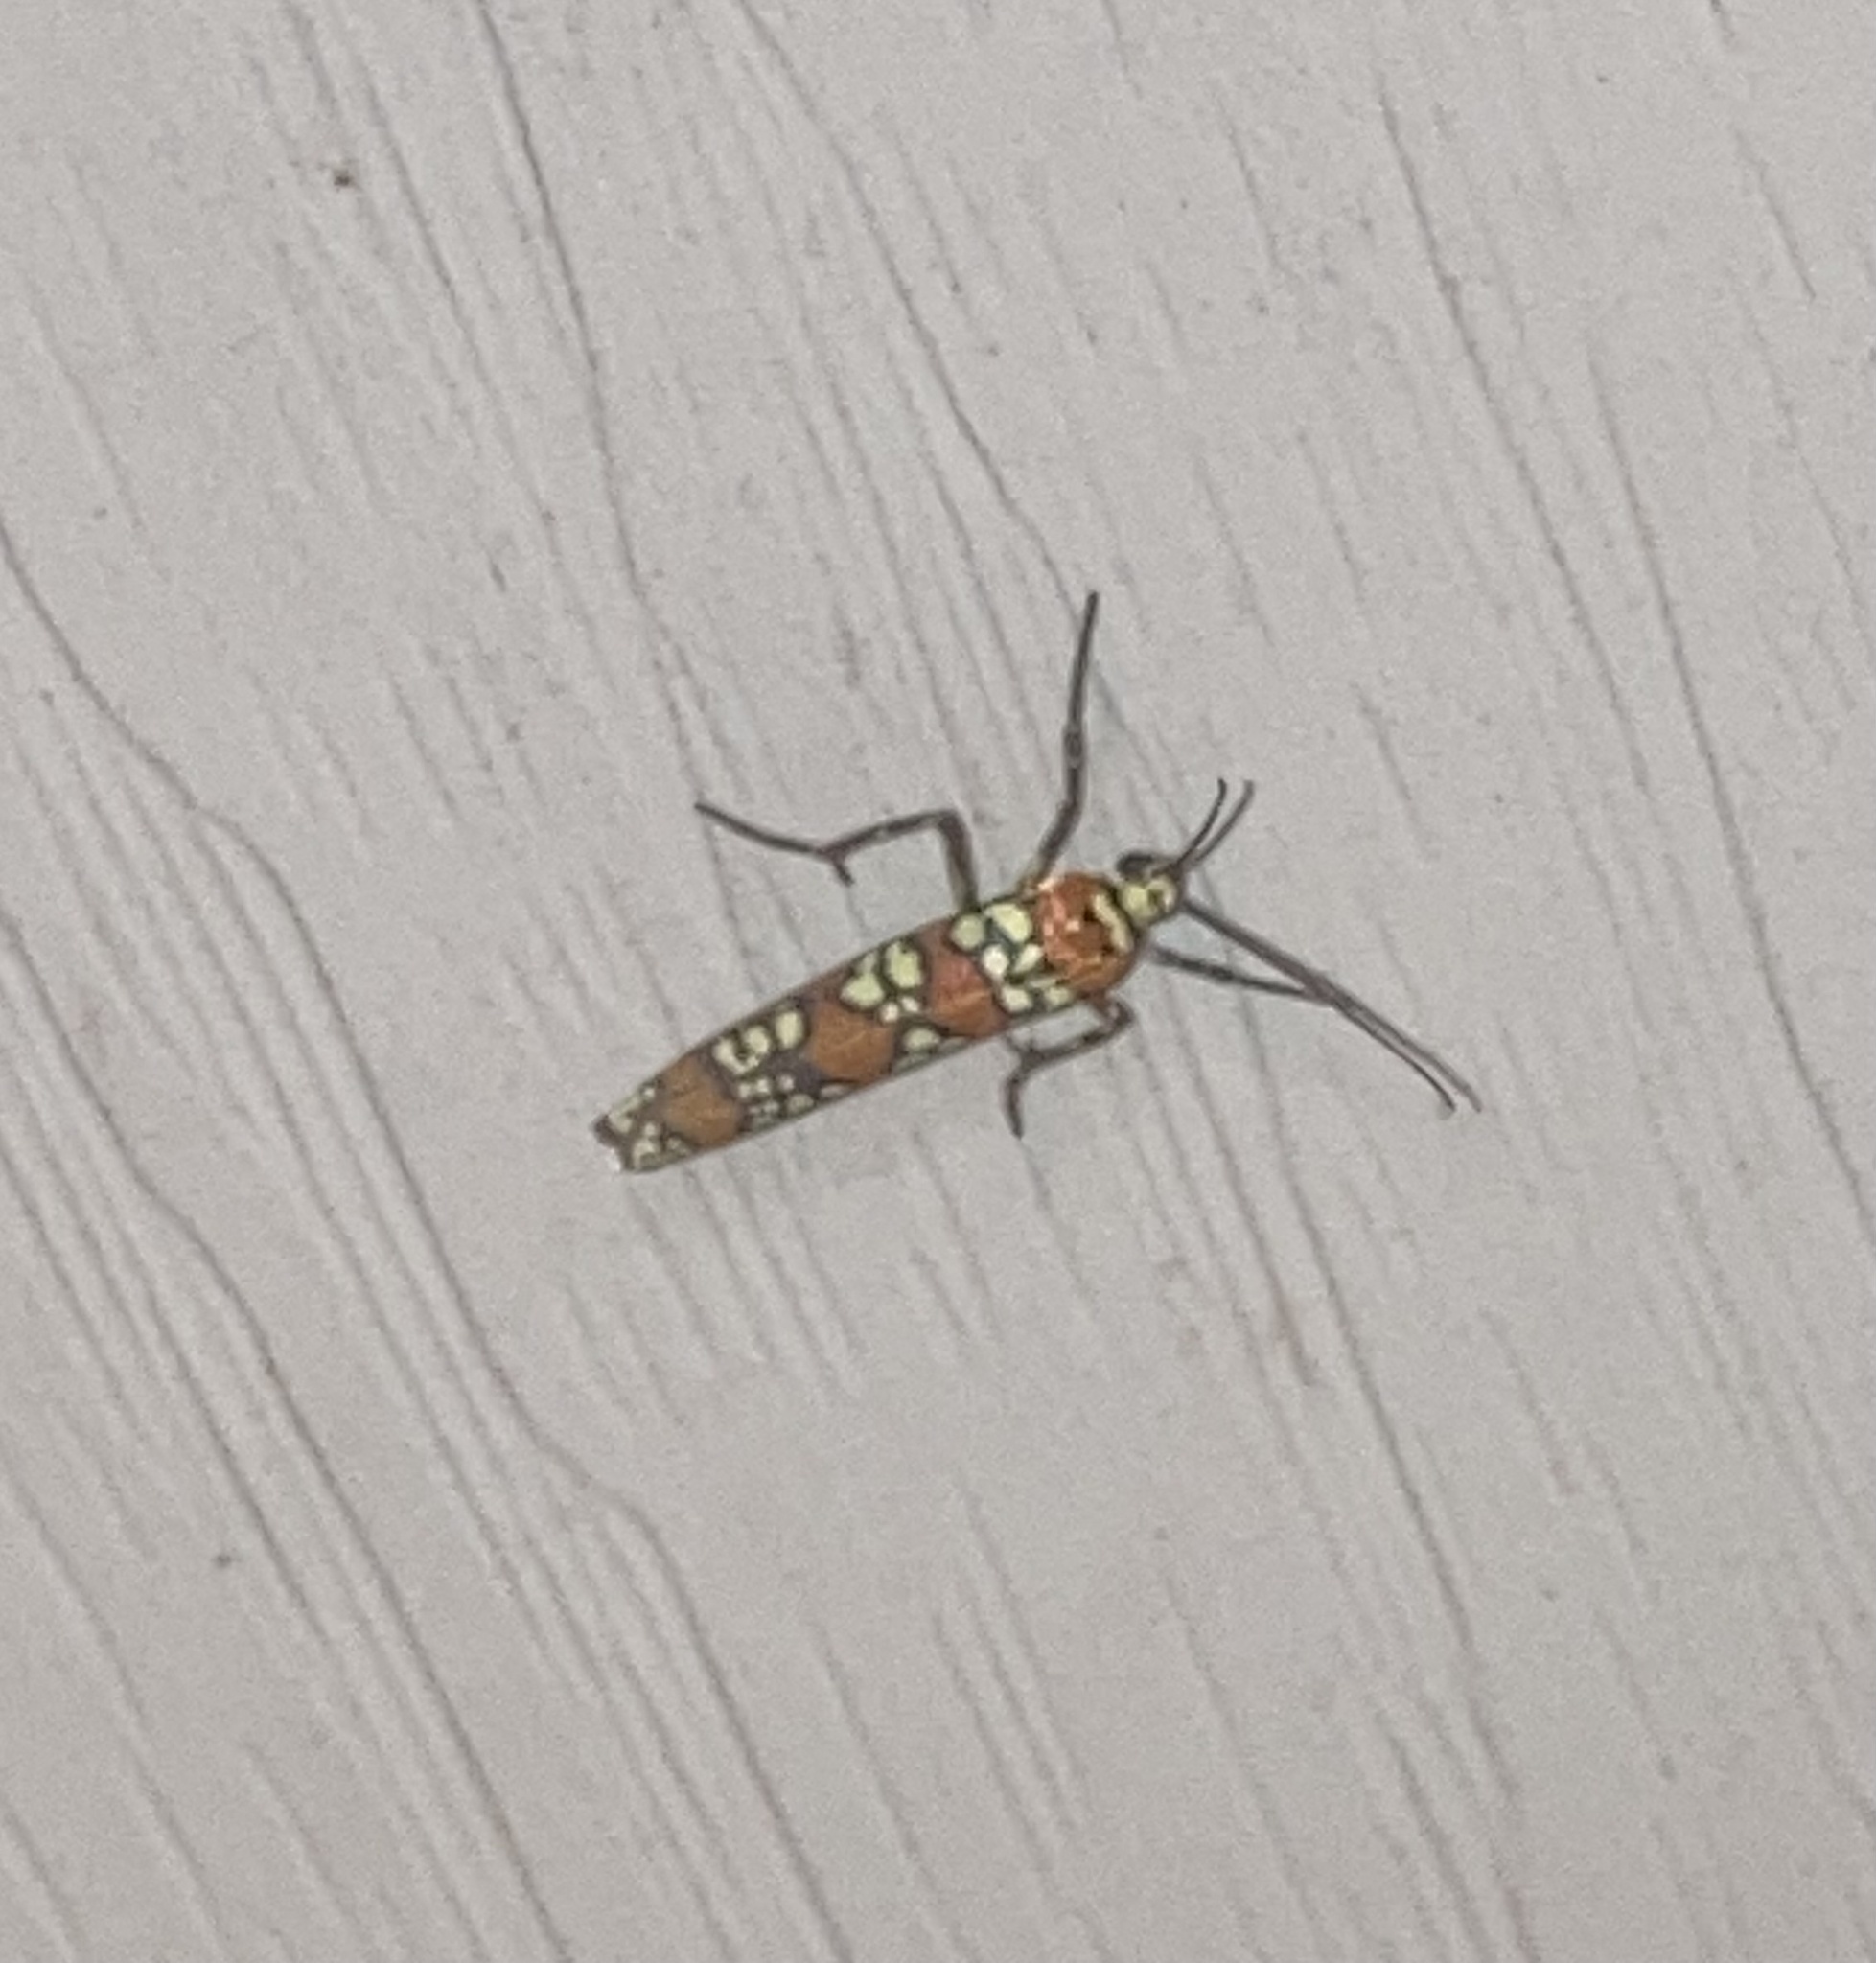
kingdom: Animalia
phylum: Arthropoda
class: Insecta
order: Lepidoptera
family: Attevidae
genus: Atteva
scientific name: Atteva punctella
